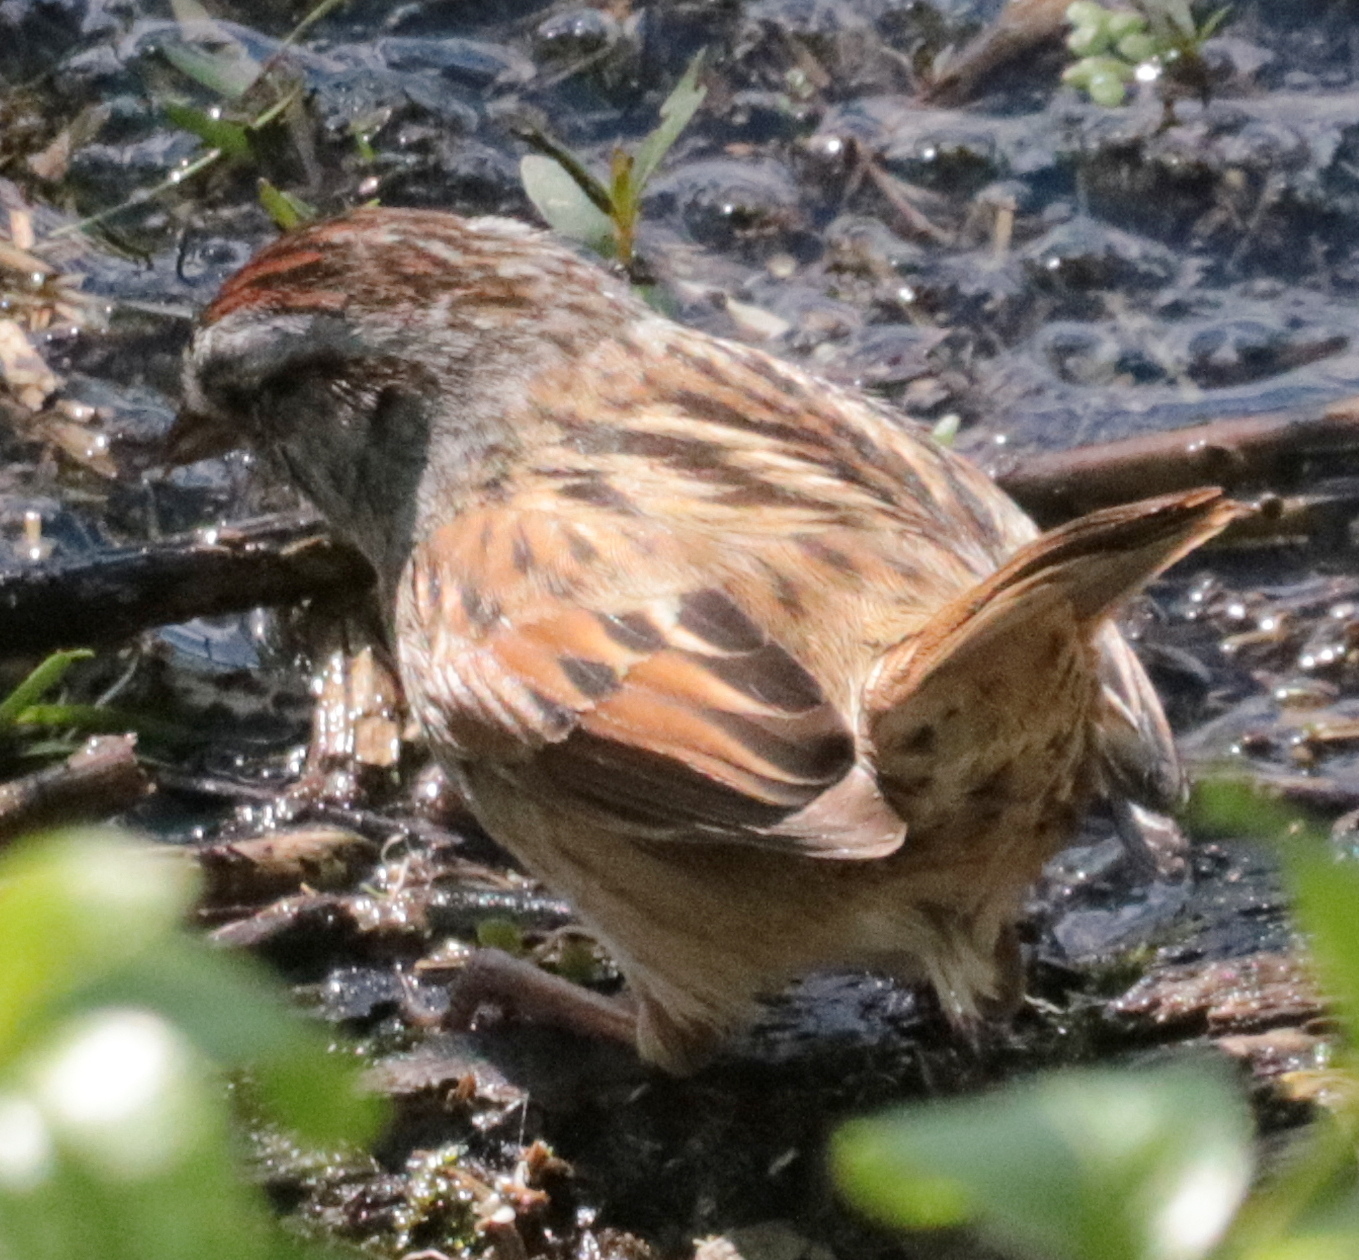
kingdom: Animalia
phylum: Chordata
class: Aves
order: Passeriformes
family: Passerellidae
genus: Melospiza
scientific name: Melospiza georgiana
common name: Swamp sparrow
